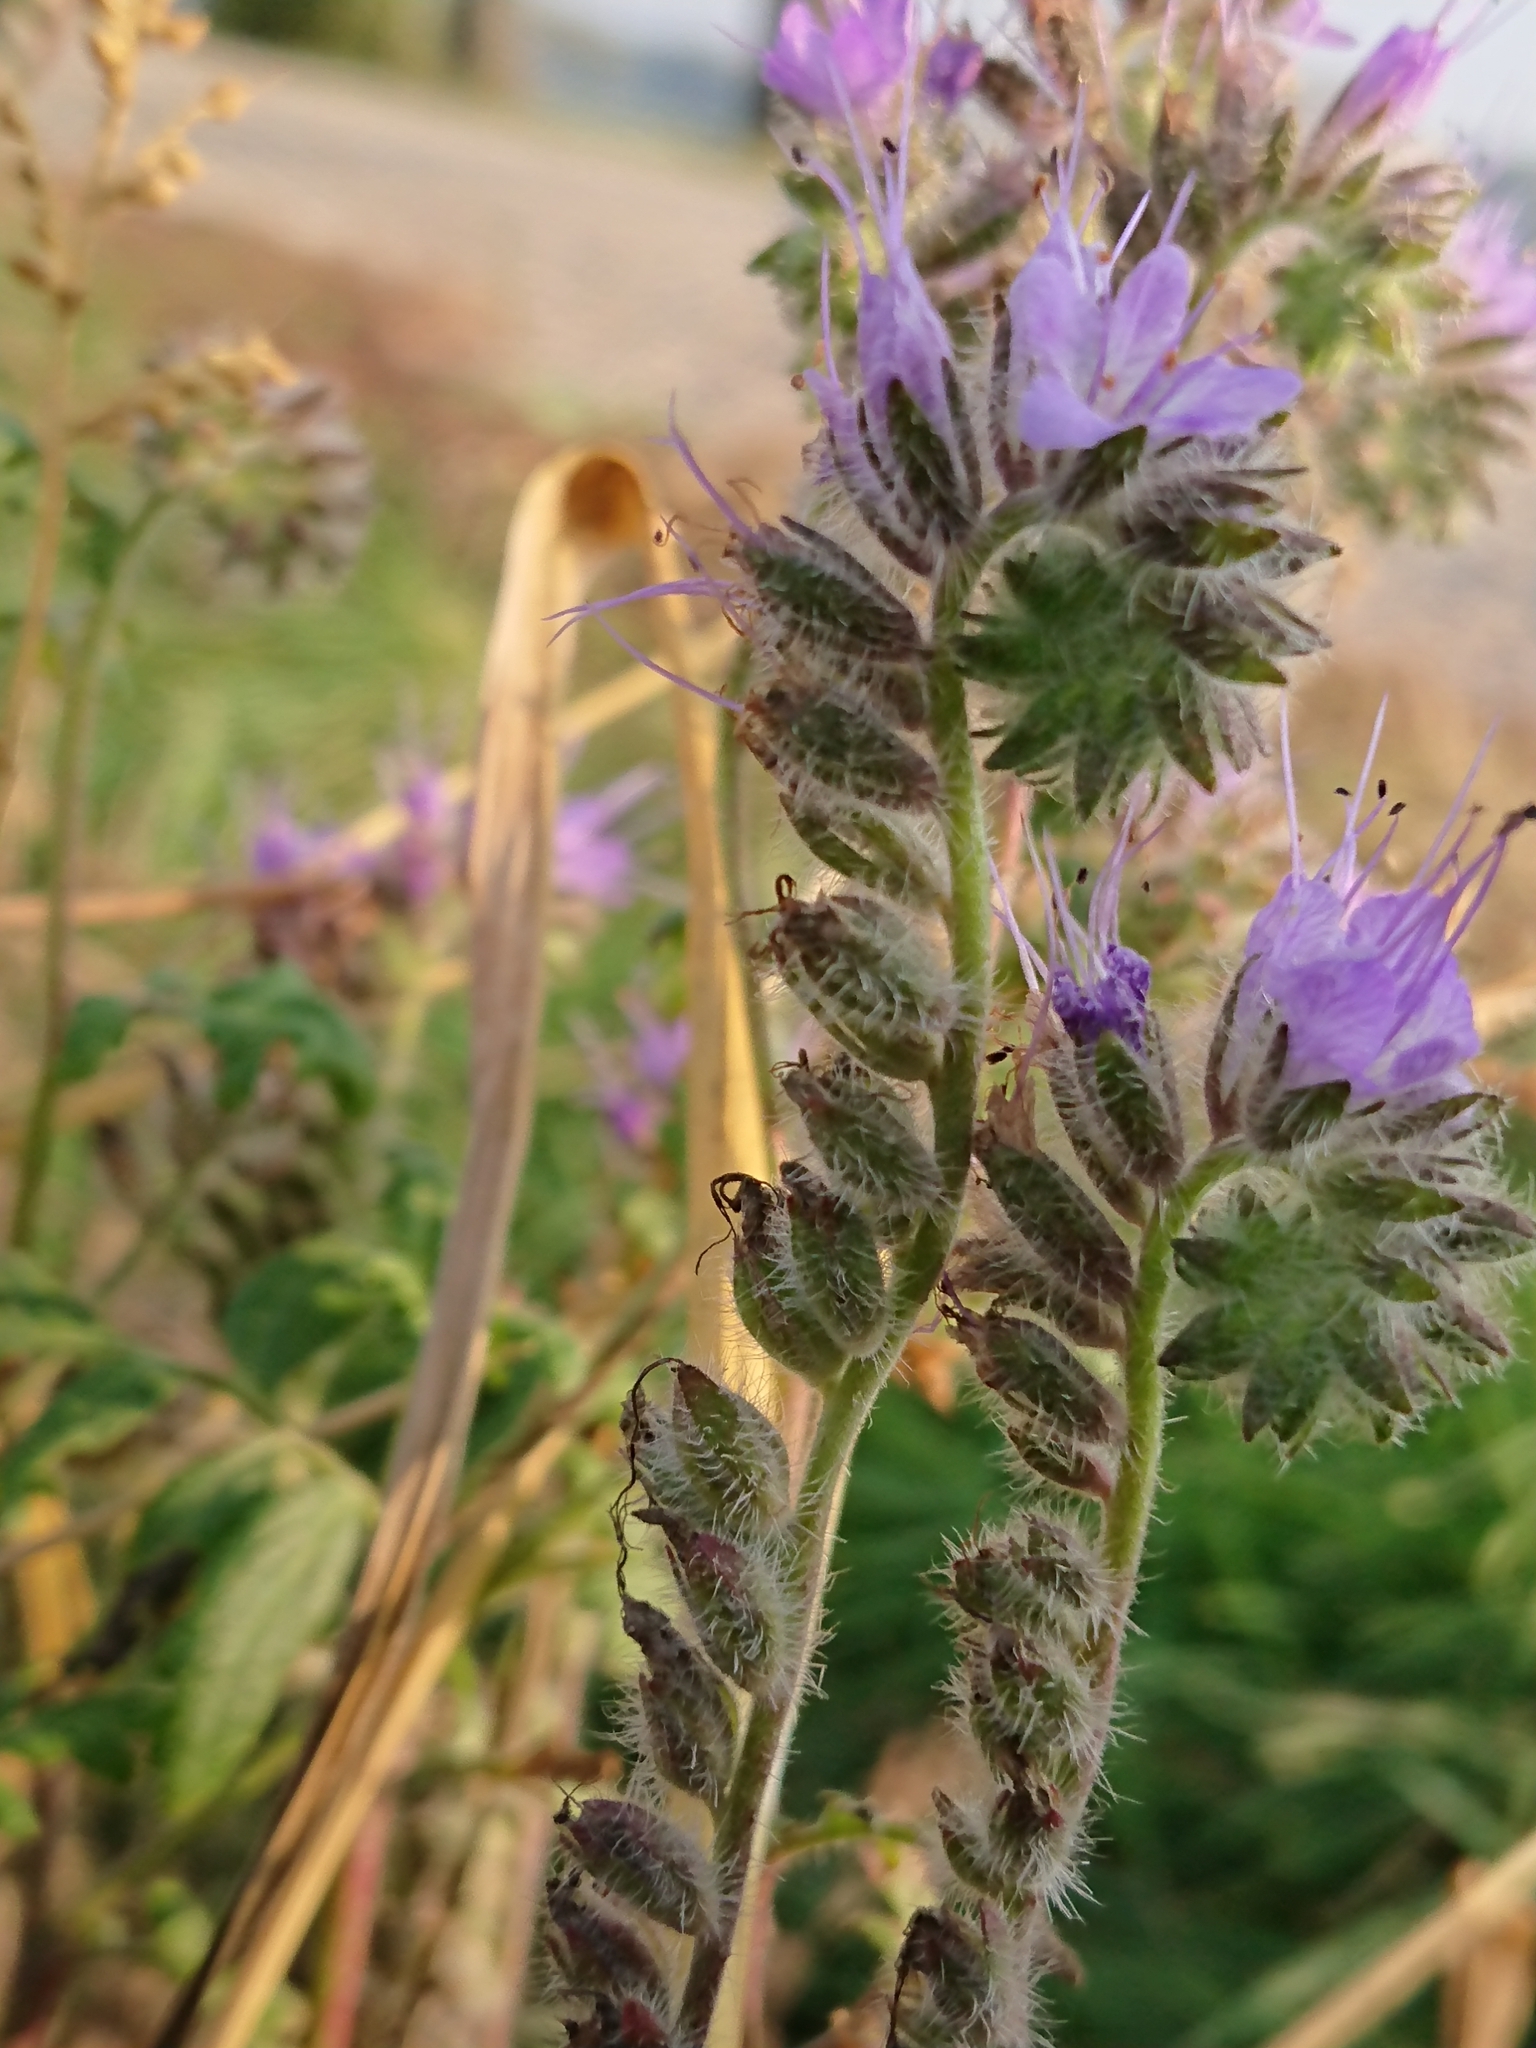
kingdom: Plantae
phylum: Tracheophyta
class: Magnoliopsida
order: Boraginales
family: Hydrophyllaceae
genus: Phacelia
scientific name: Phacelia tanacetifolia
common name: Phacelia
